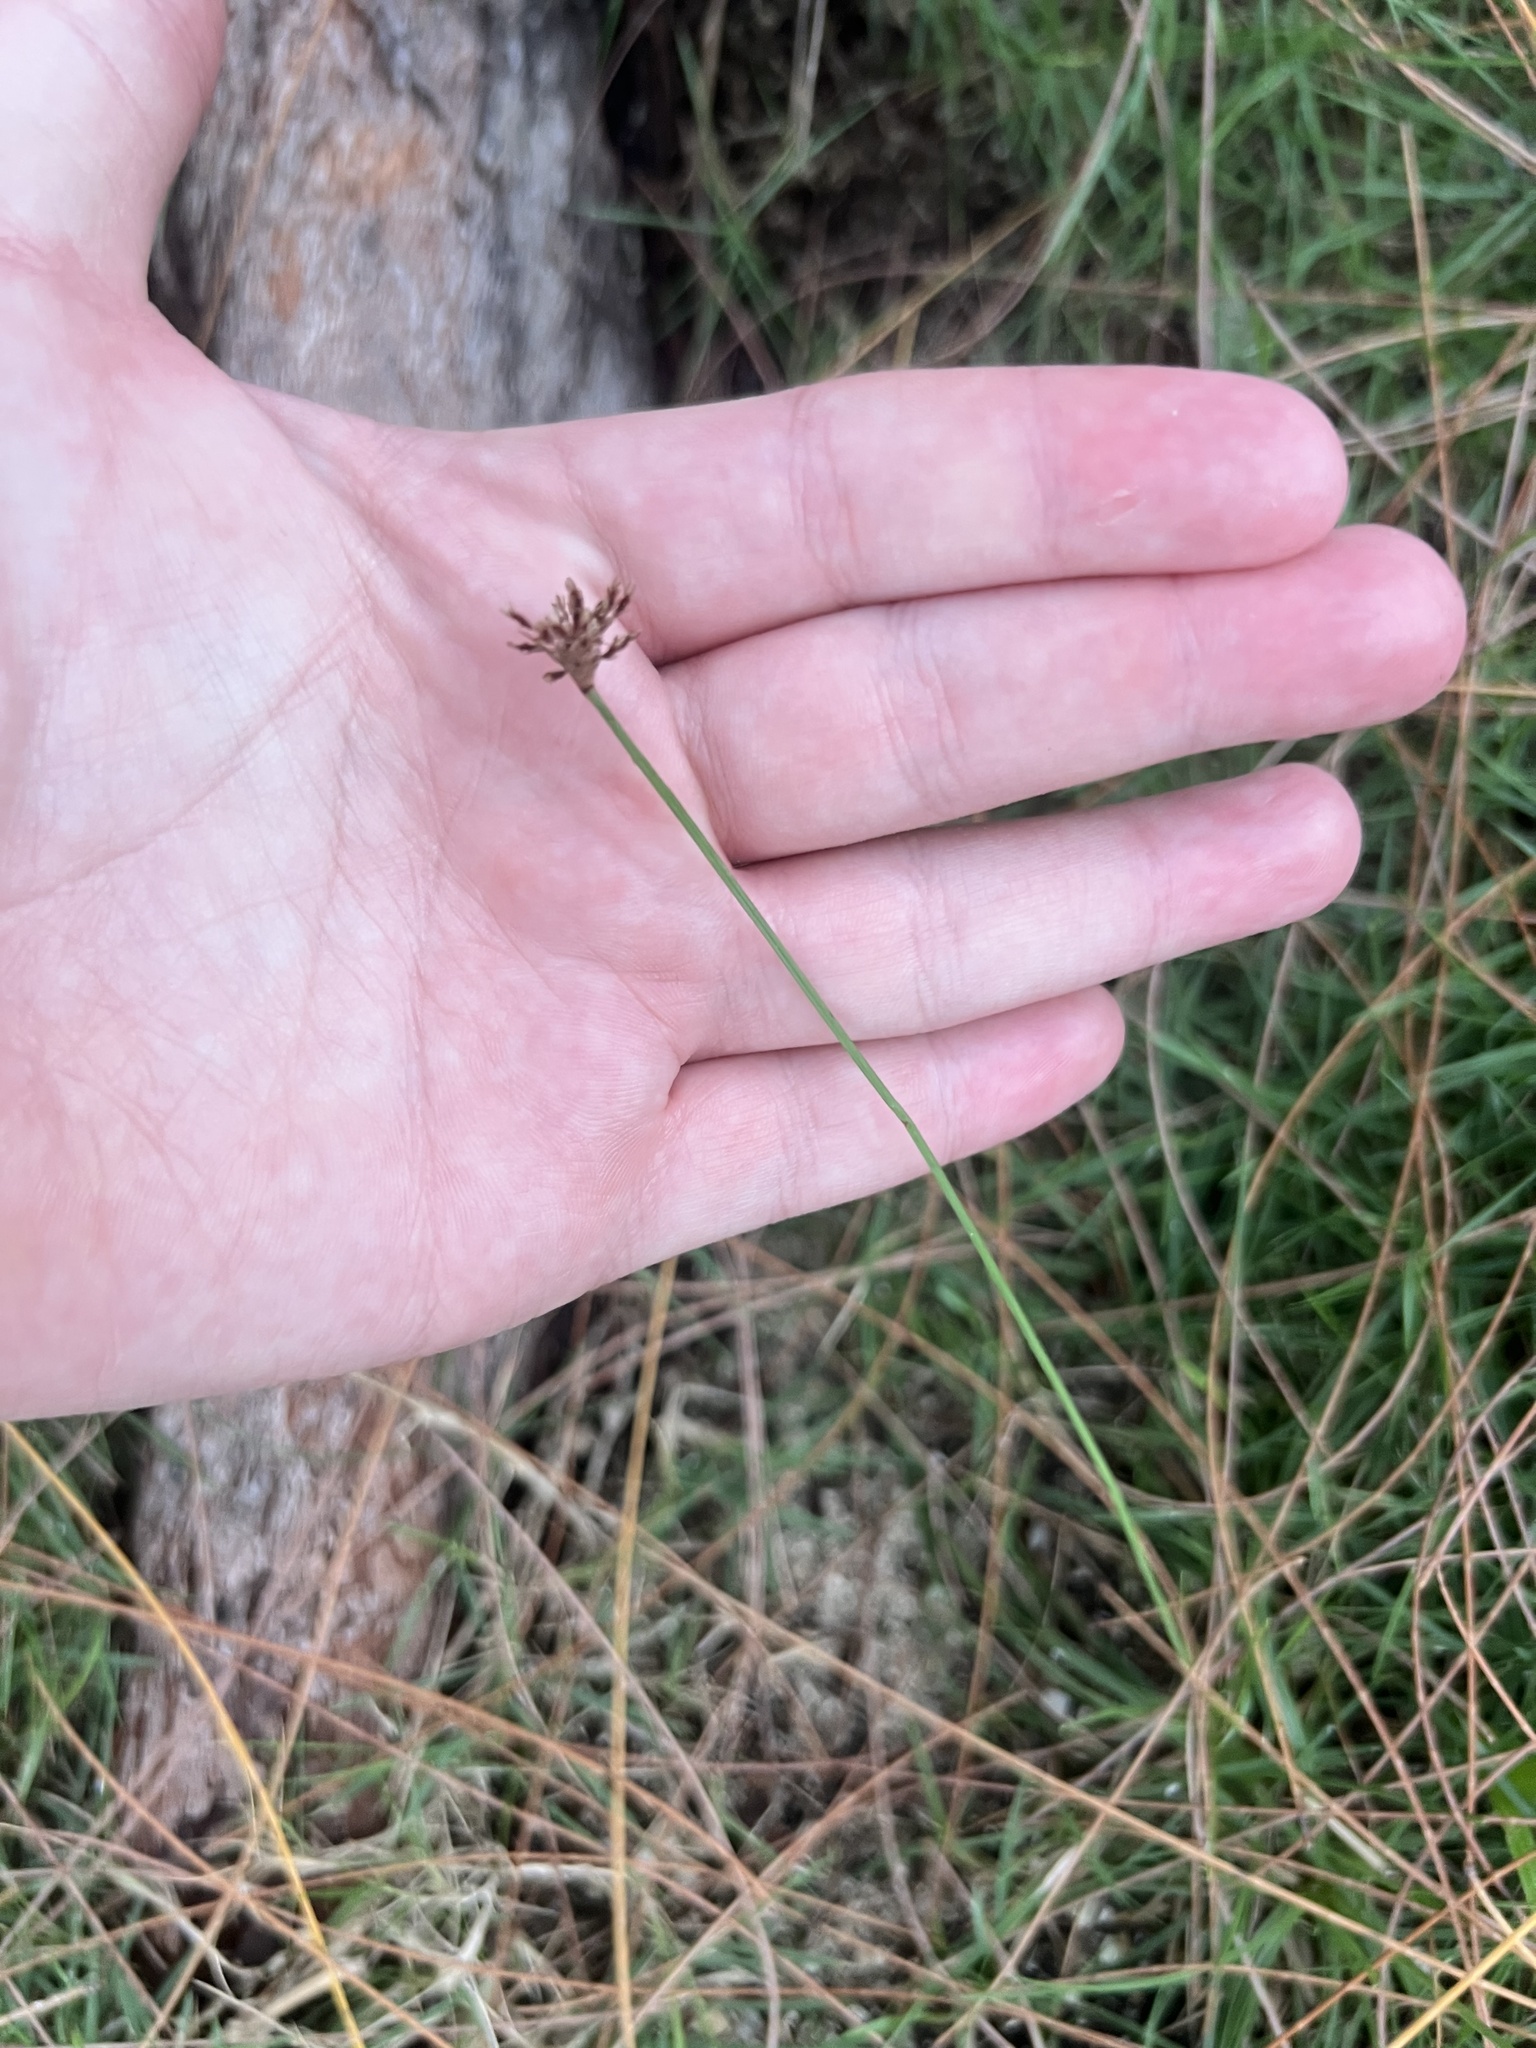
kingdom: Plantae
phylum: Tracheophyta
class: Liliopsida
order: Poales
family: Cyperaceae
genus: Fimbristylis
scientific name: Fimbristylis cymosa
